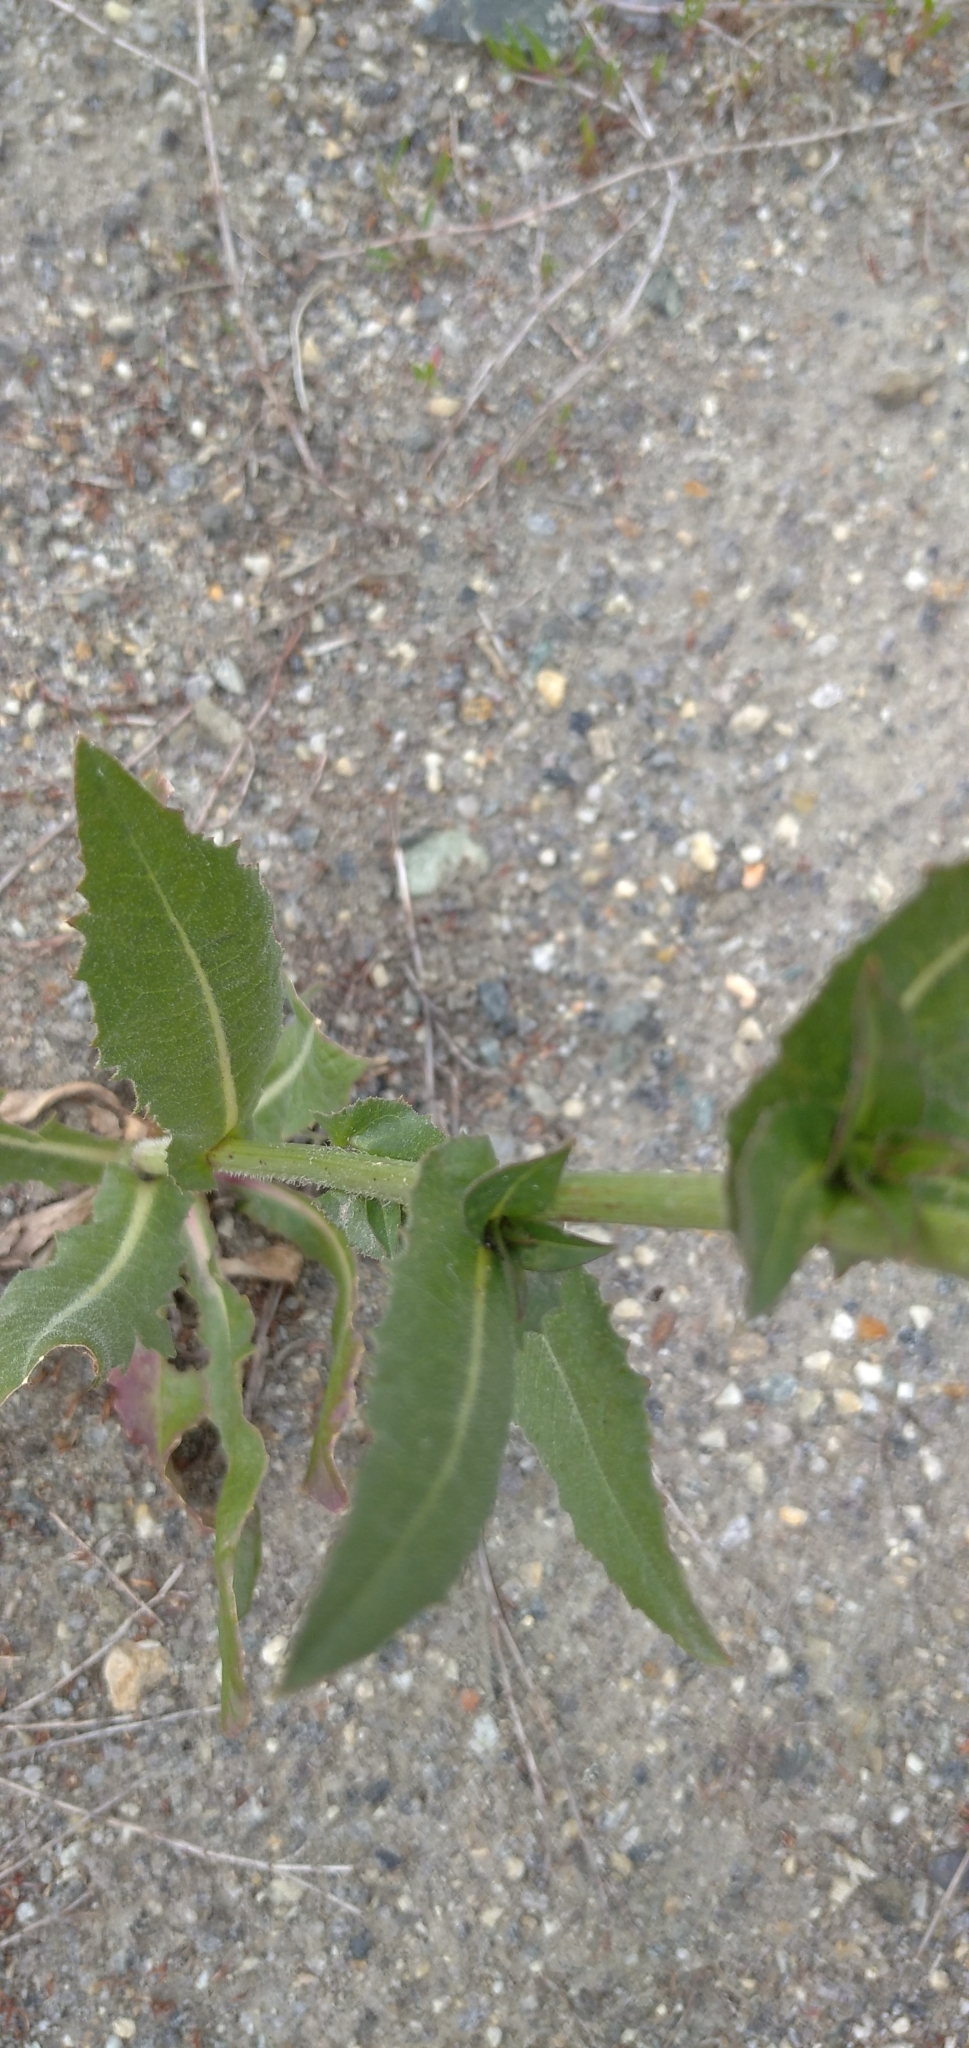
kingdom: Plantae
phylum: Tracheophyta
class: Magnoliopsida
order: Asterales
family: Asteraceae
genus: Cichorium
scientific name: Cichorium intybus
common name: Chicory
